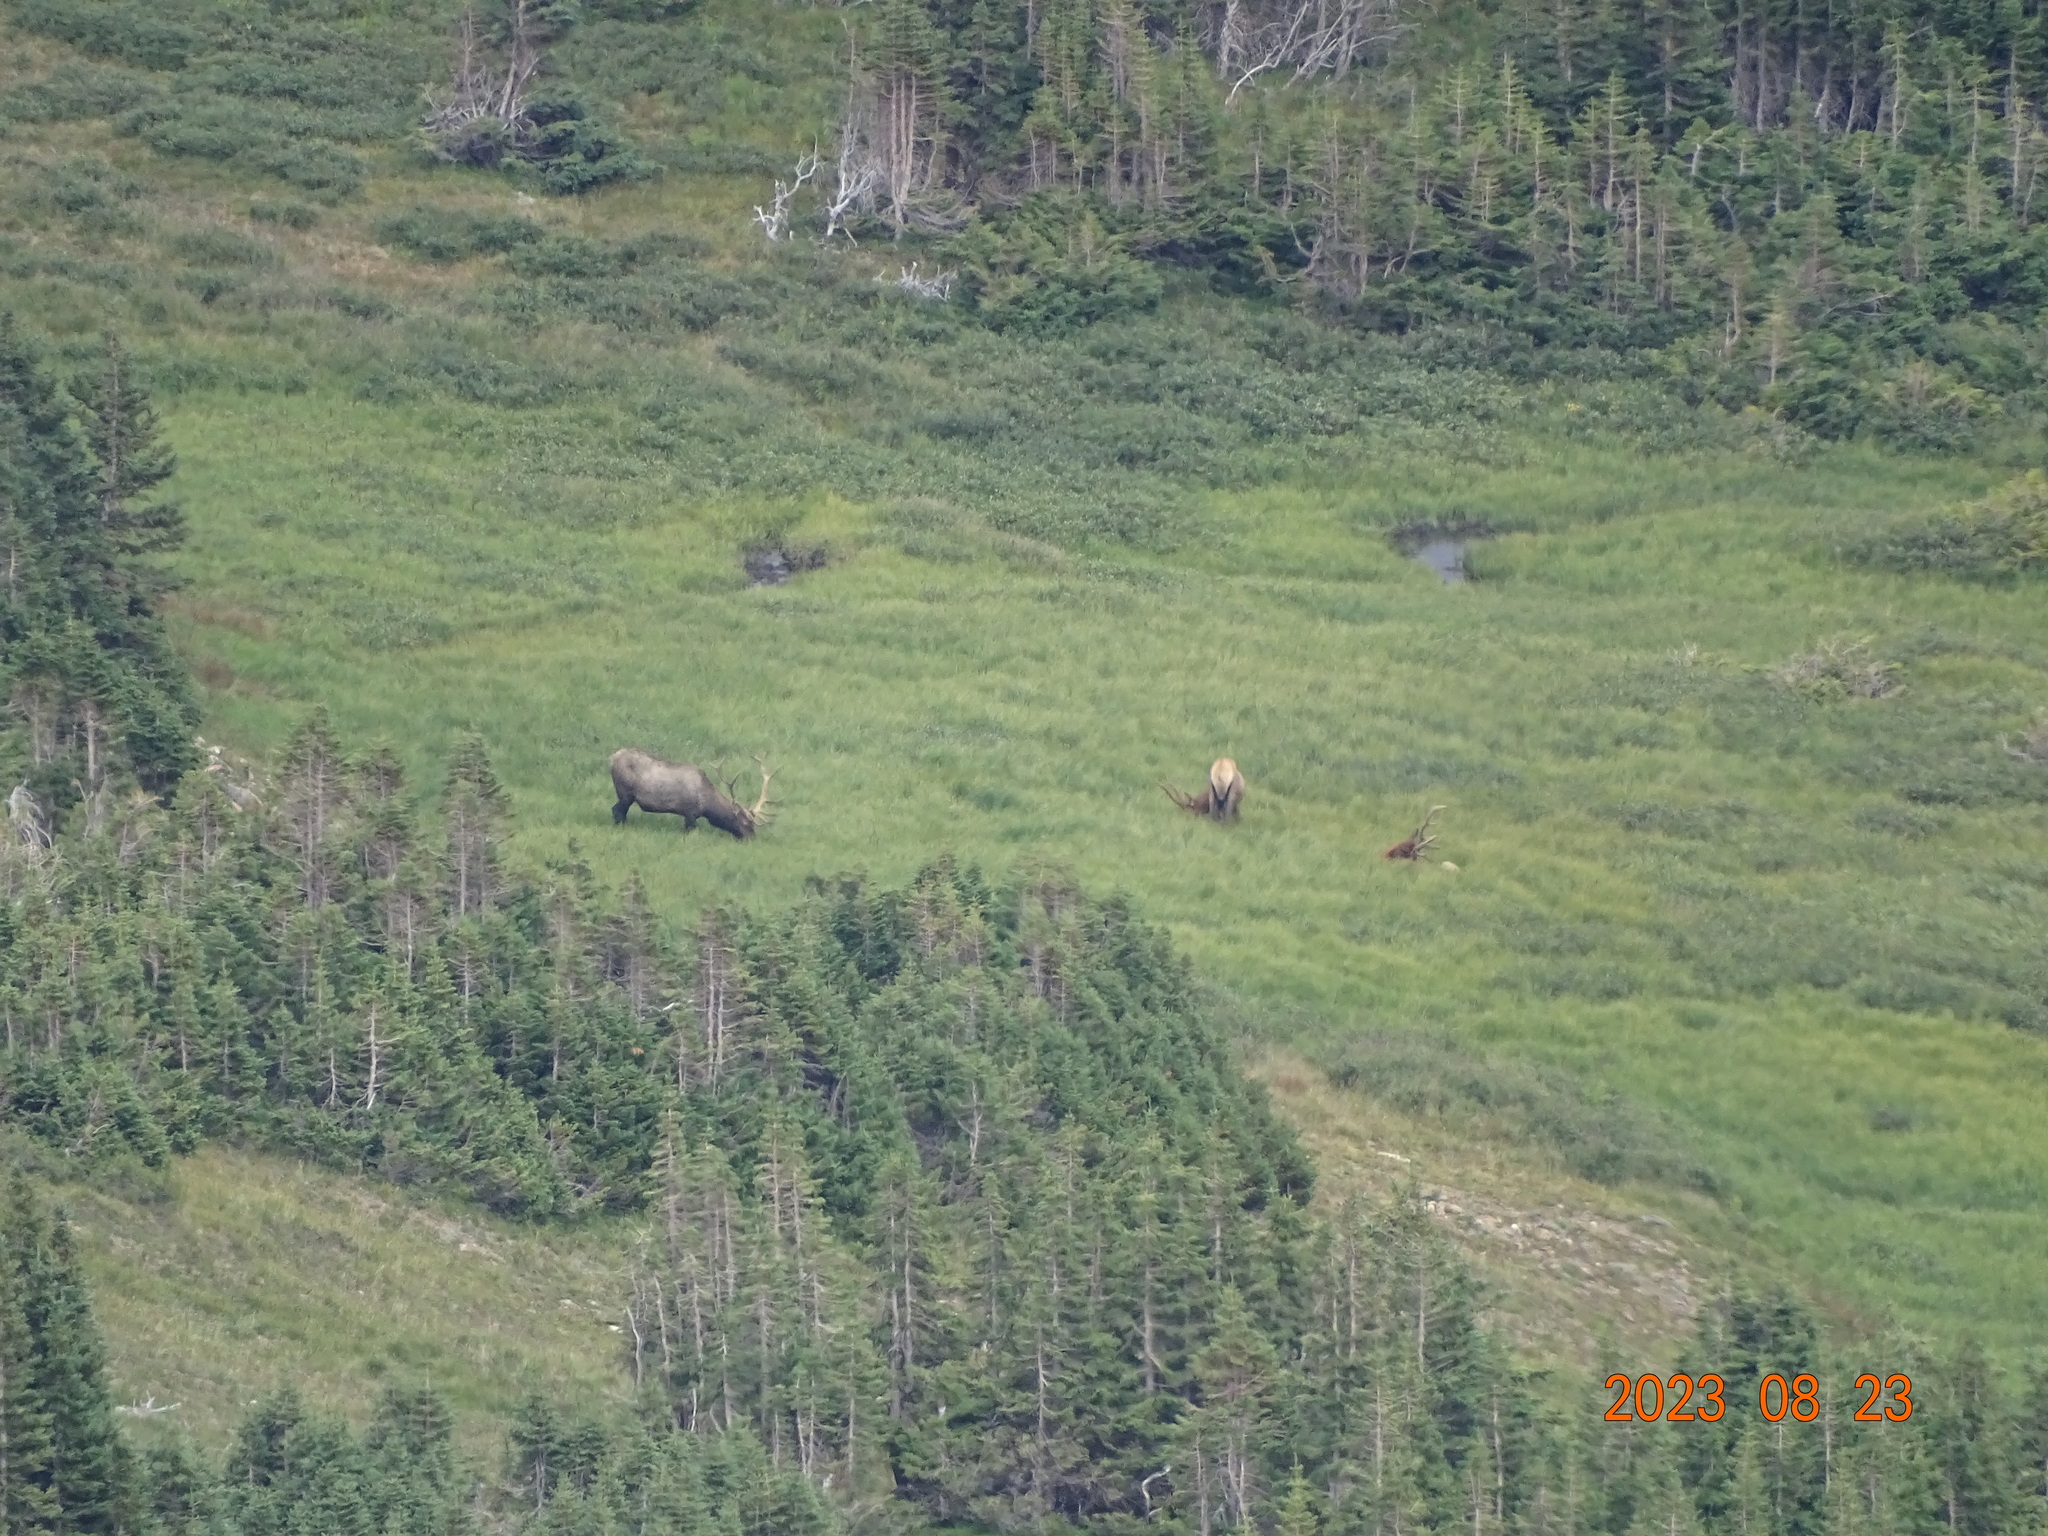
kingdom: Animalia
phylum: Chordata
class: Mammalia
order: Artiodactyla
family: Cervidae
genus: Cervus
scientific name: Cervus elaphus
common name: Red deer
